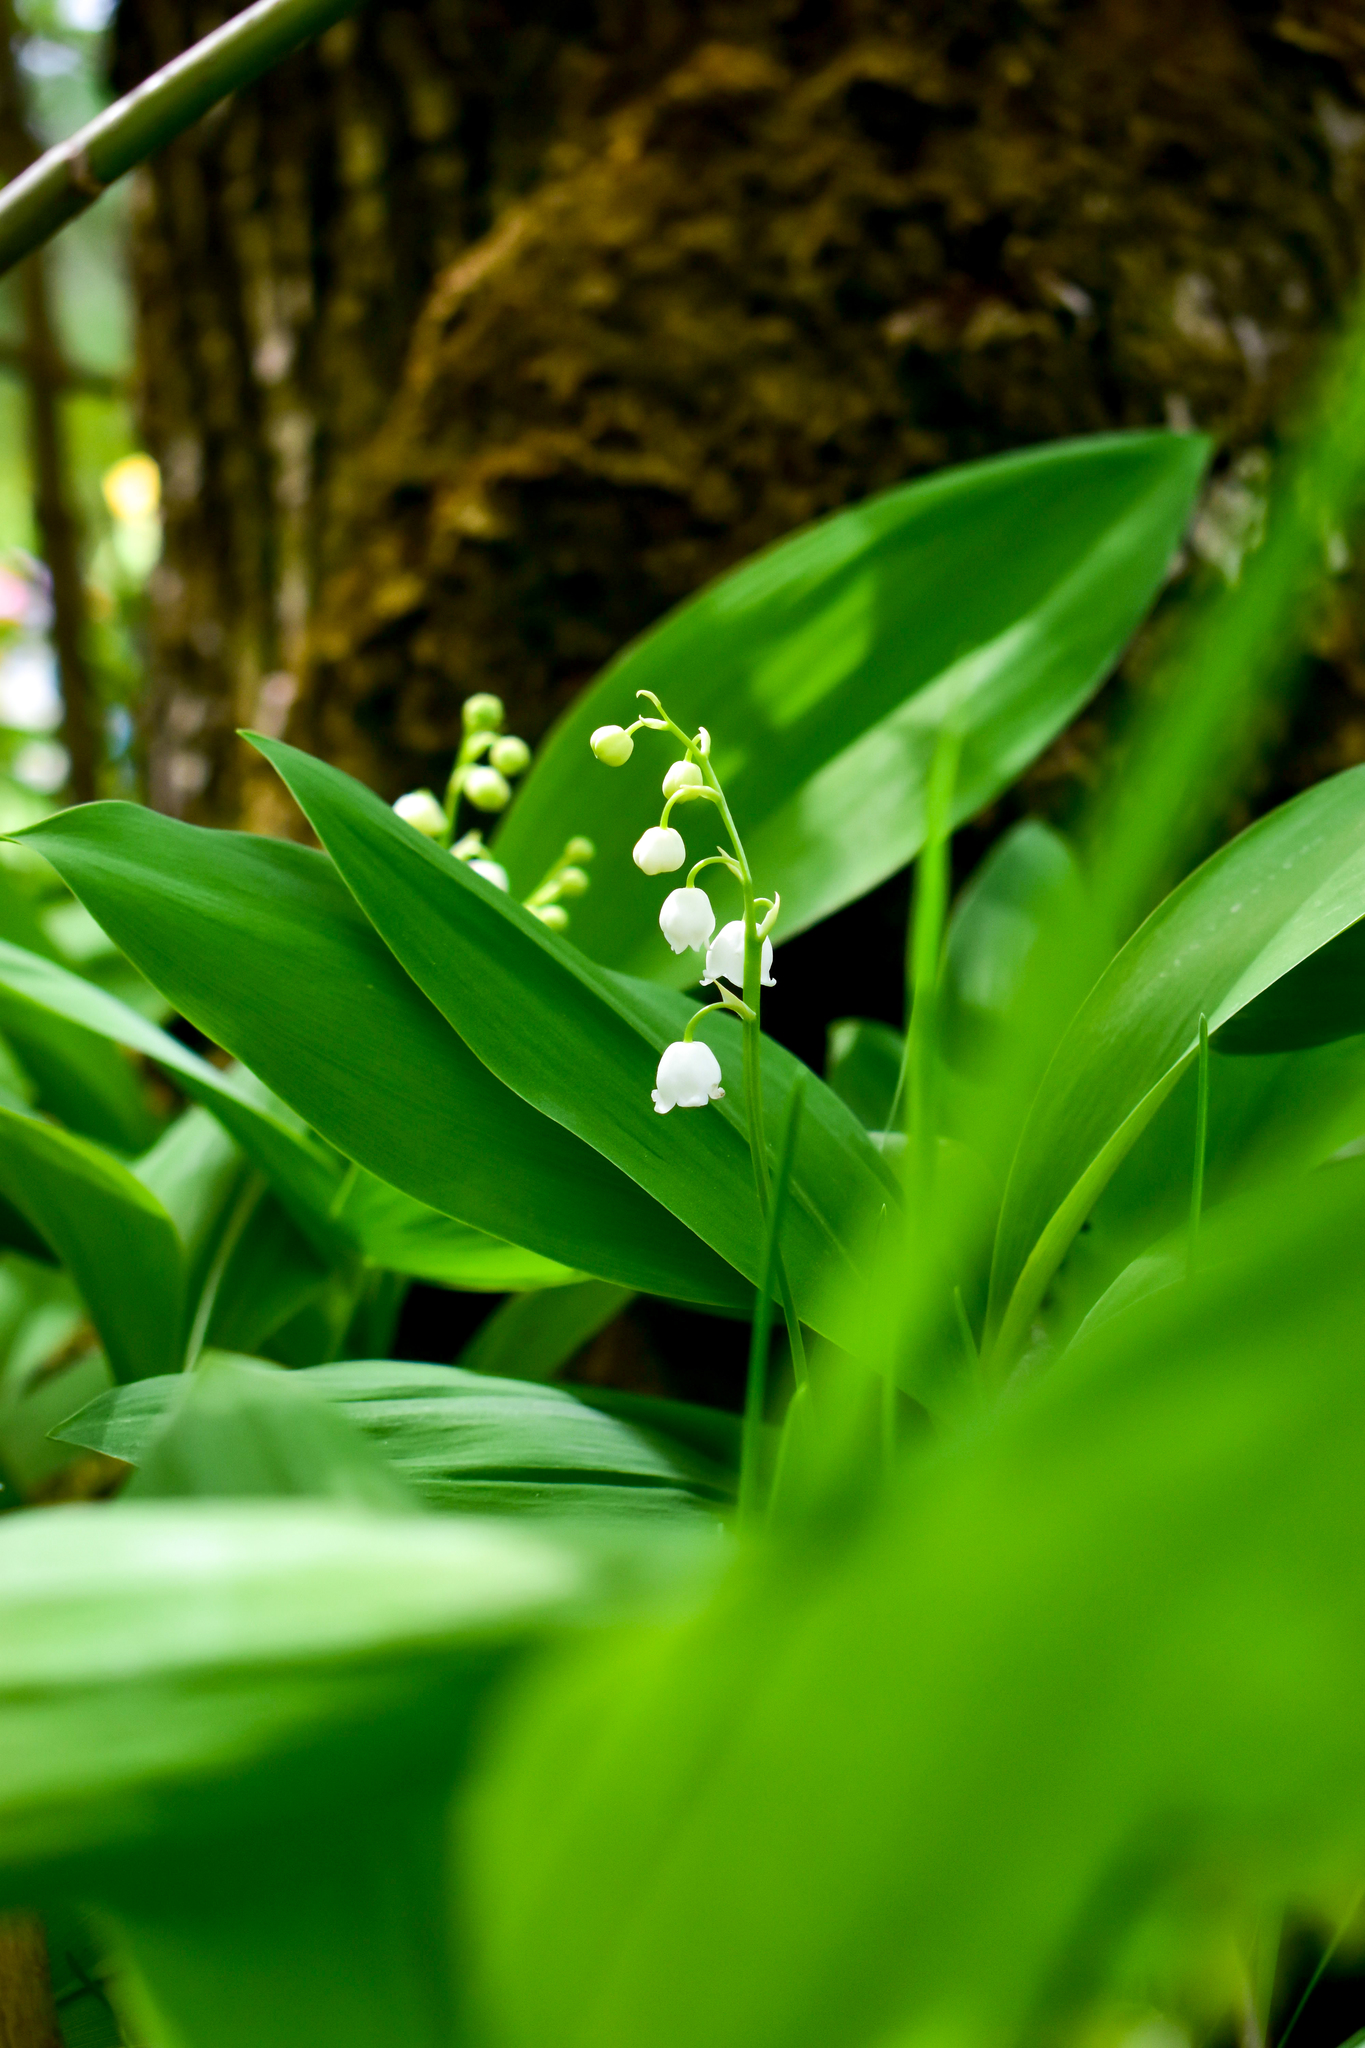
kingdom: Plantae
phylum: Tracheophyta
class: Liliopsida
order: Asparagales
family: Asparagaceae
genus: Convallaria
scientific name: Convallaria majalis
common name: Lily-of-the-valley
